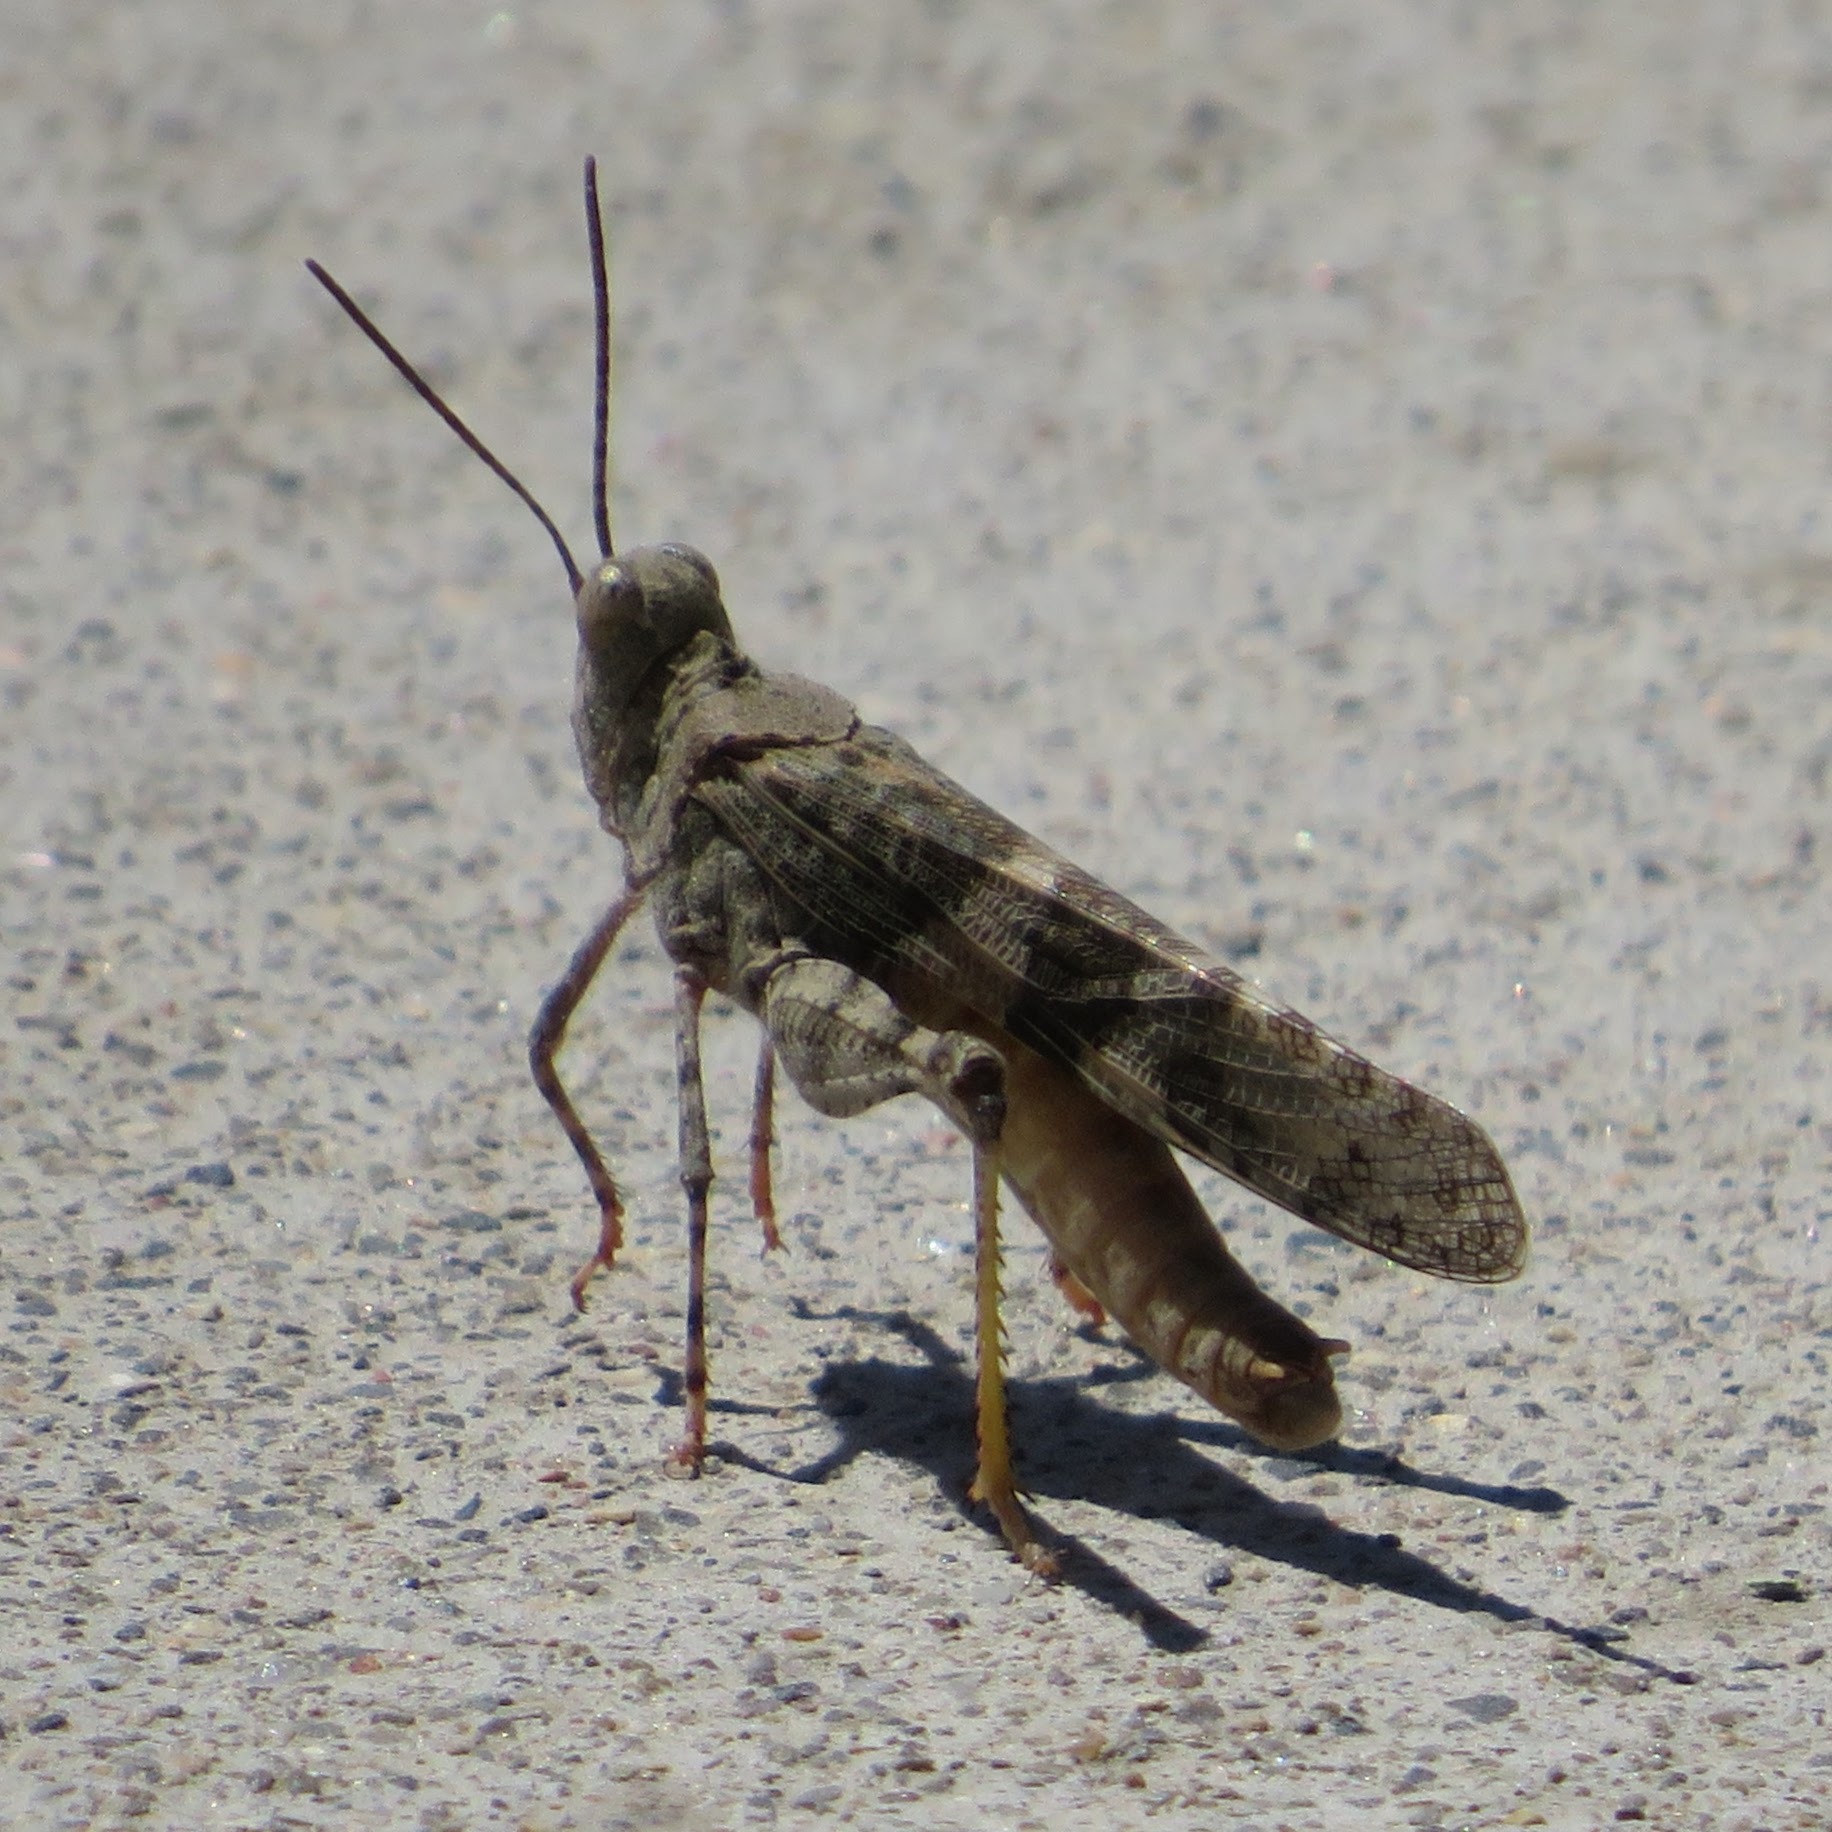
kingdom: Animalia
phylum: Arthropoda
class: Insecta
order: Orthoptera
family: Acrididae
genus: Trimerotropis
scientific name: Trimerotropis pallidipennis
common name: Pallid-winged grasshopper
